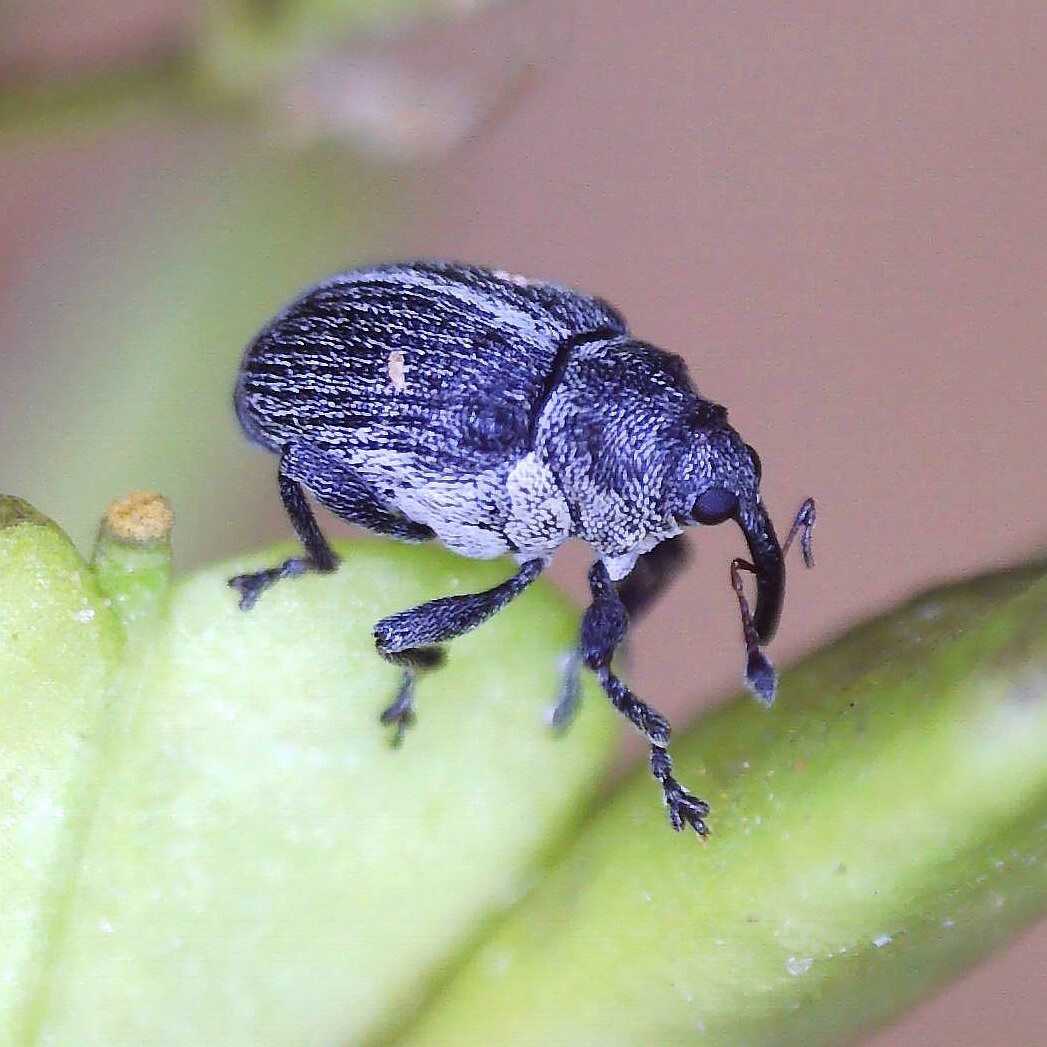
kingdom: Animalia
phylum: Arthropoda
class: Insecta
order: Coleoptera
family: Curculionidae
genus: Ceutorhynchus
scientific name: Ceutorhynchus typhae
